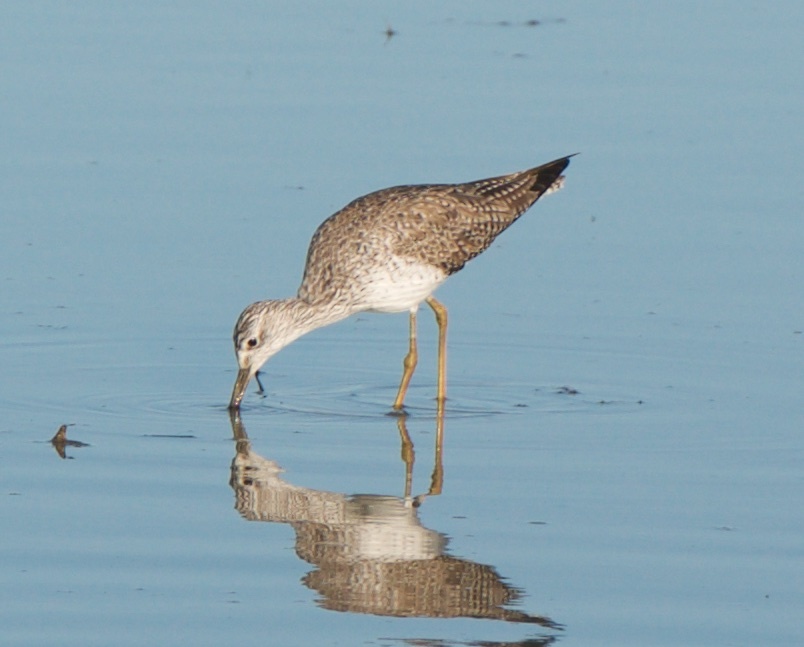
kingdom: Animalia
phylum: Chordata
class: Aves
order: Charadriiformes
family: Scolopacidae
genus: Tringa
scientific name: Tringa melanoleuca
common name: Greater yellowlegs
